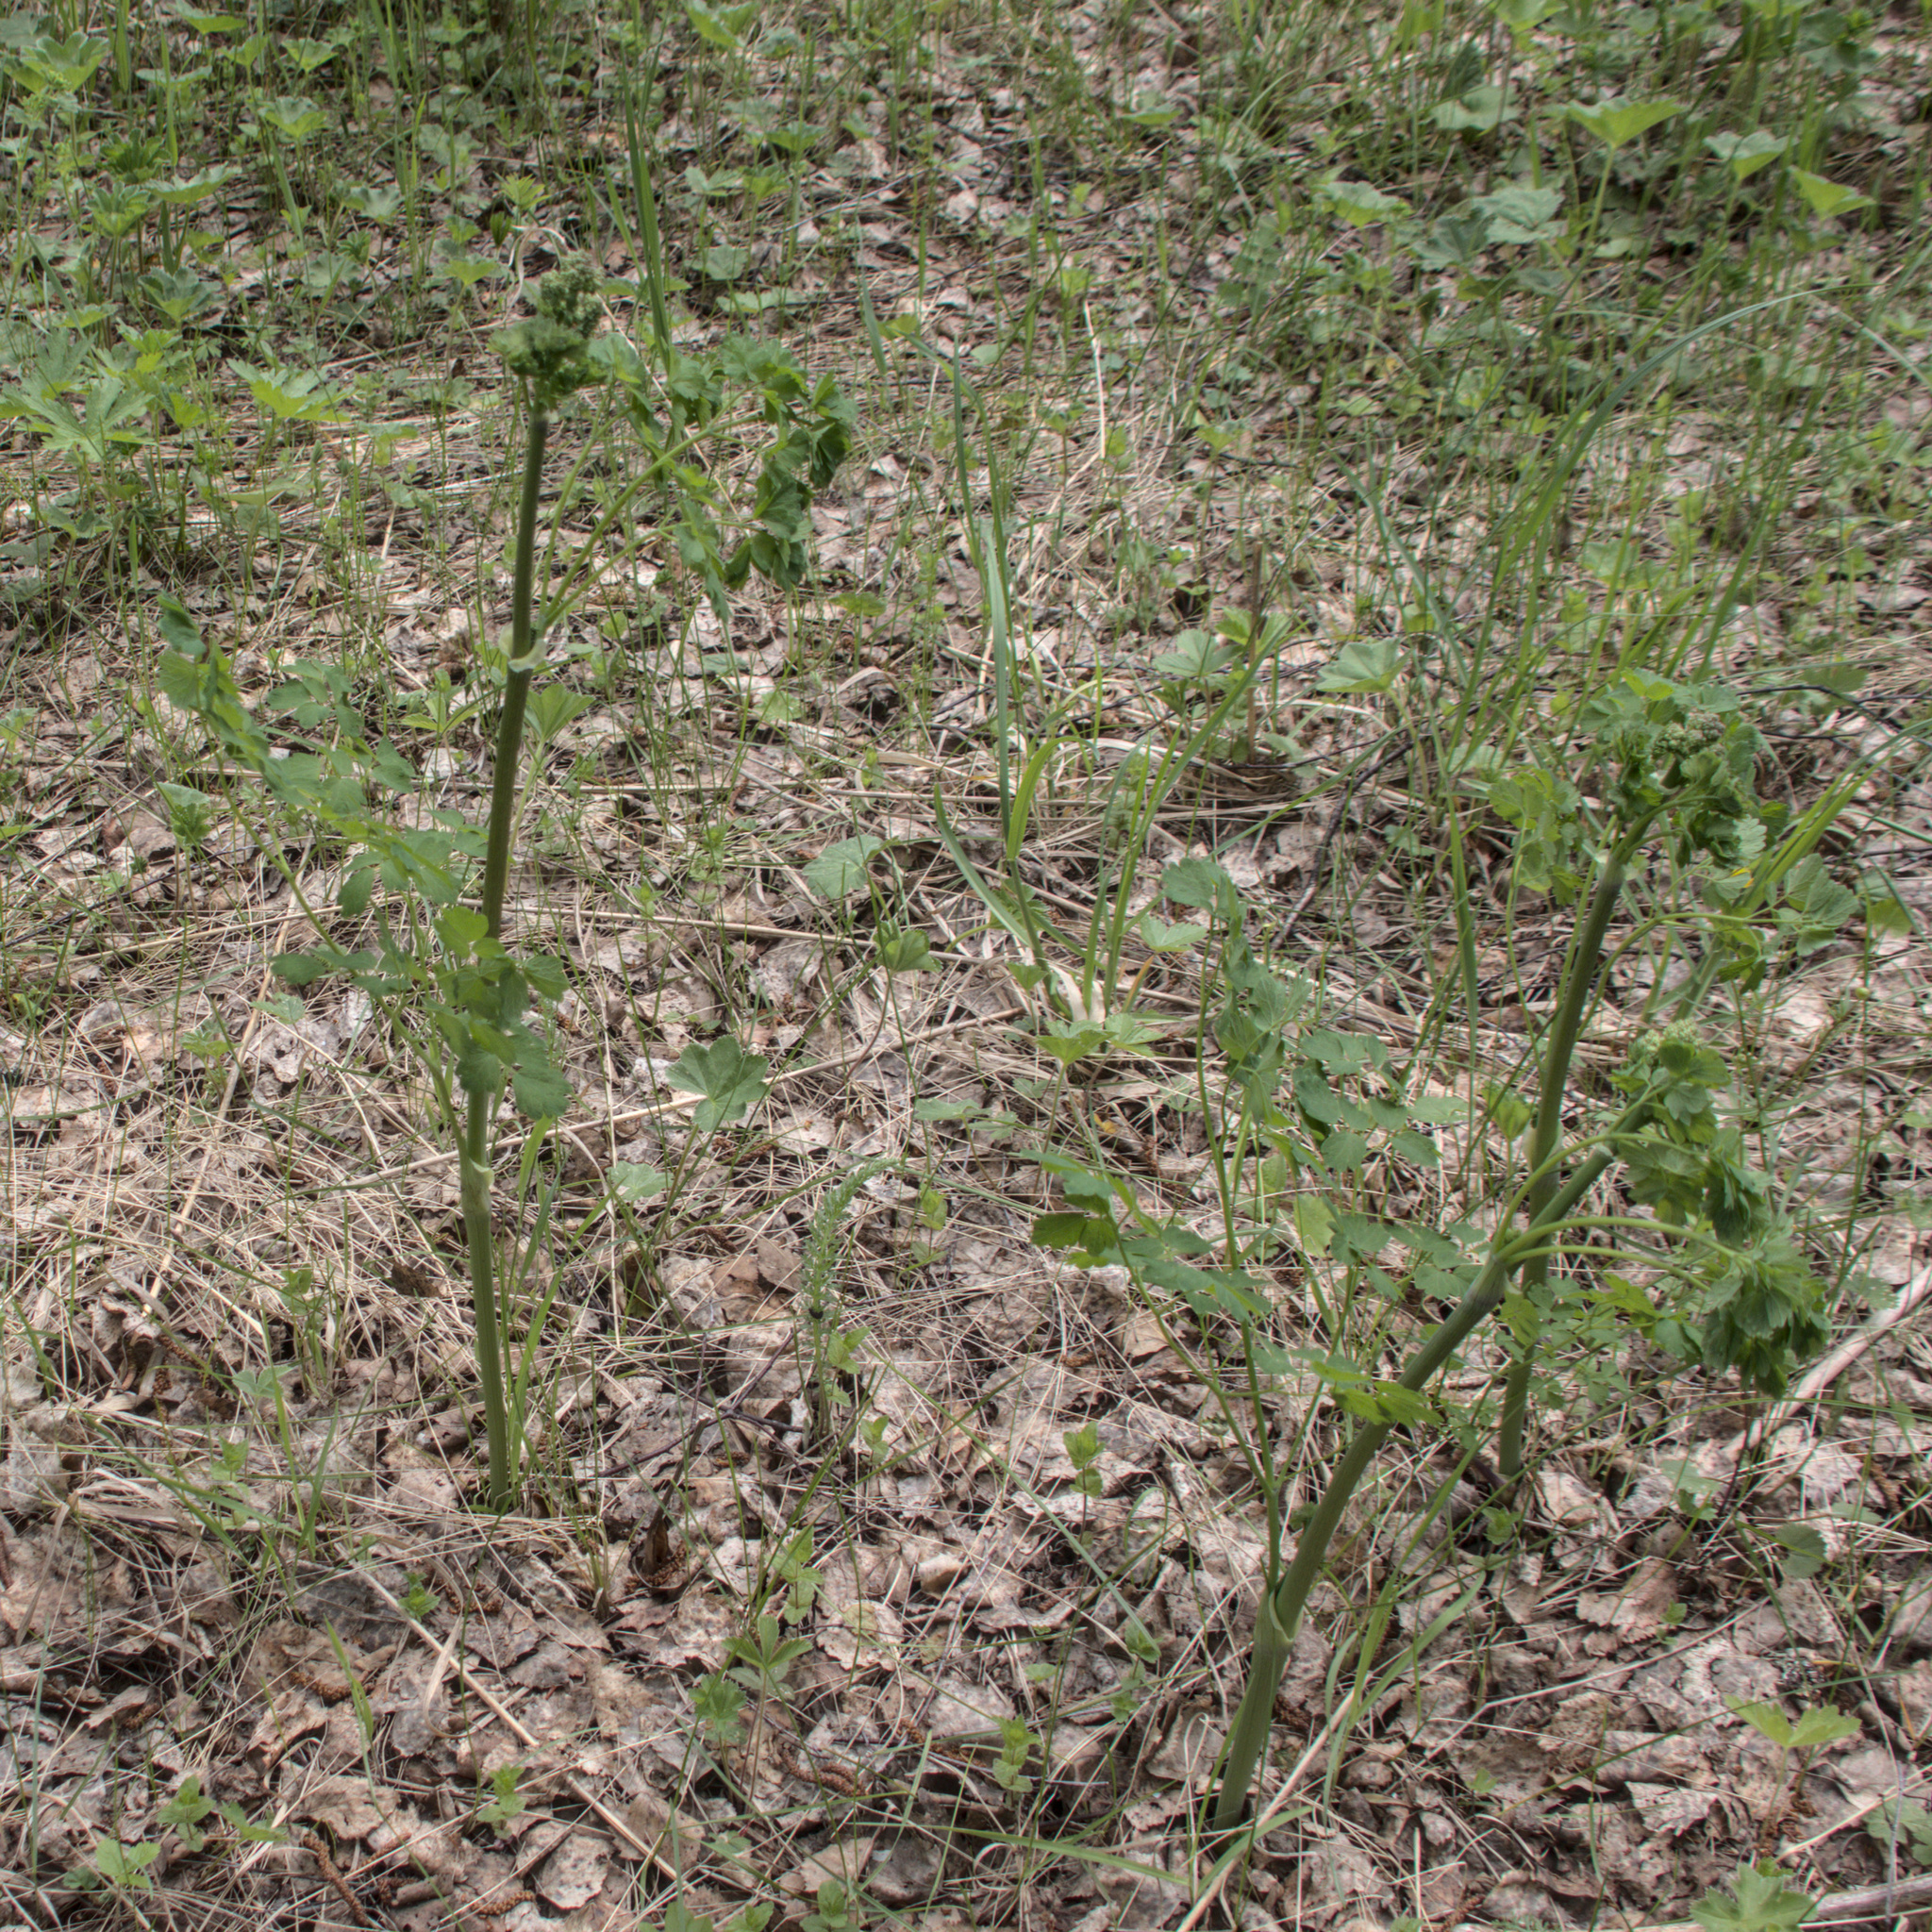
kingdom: Plantae
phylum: Tracheophyta
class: Magnoliopsida
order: Ranunculales
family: Ranunculaceae
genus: Thalictrum
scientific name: Thalictrum minus
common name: Lesser meadow-rue
